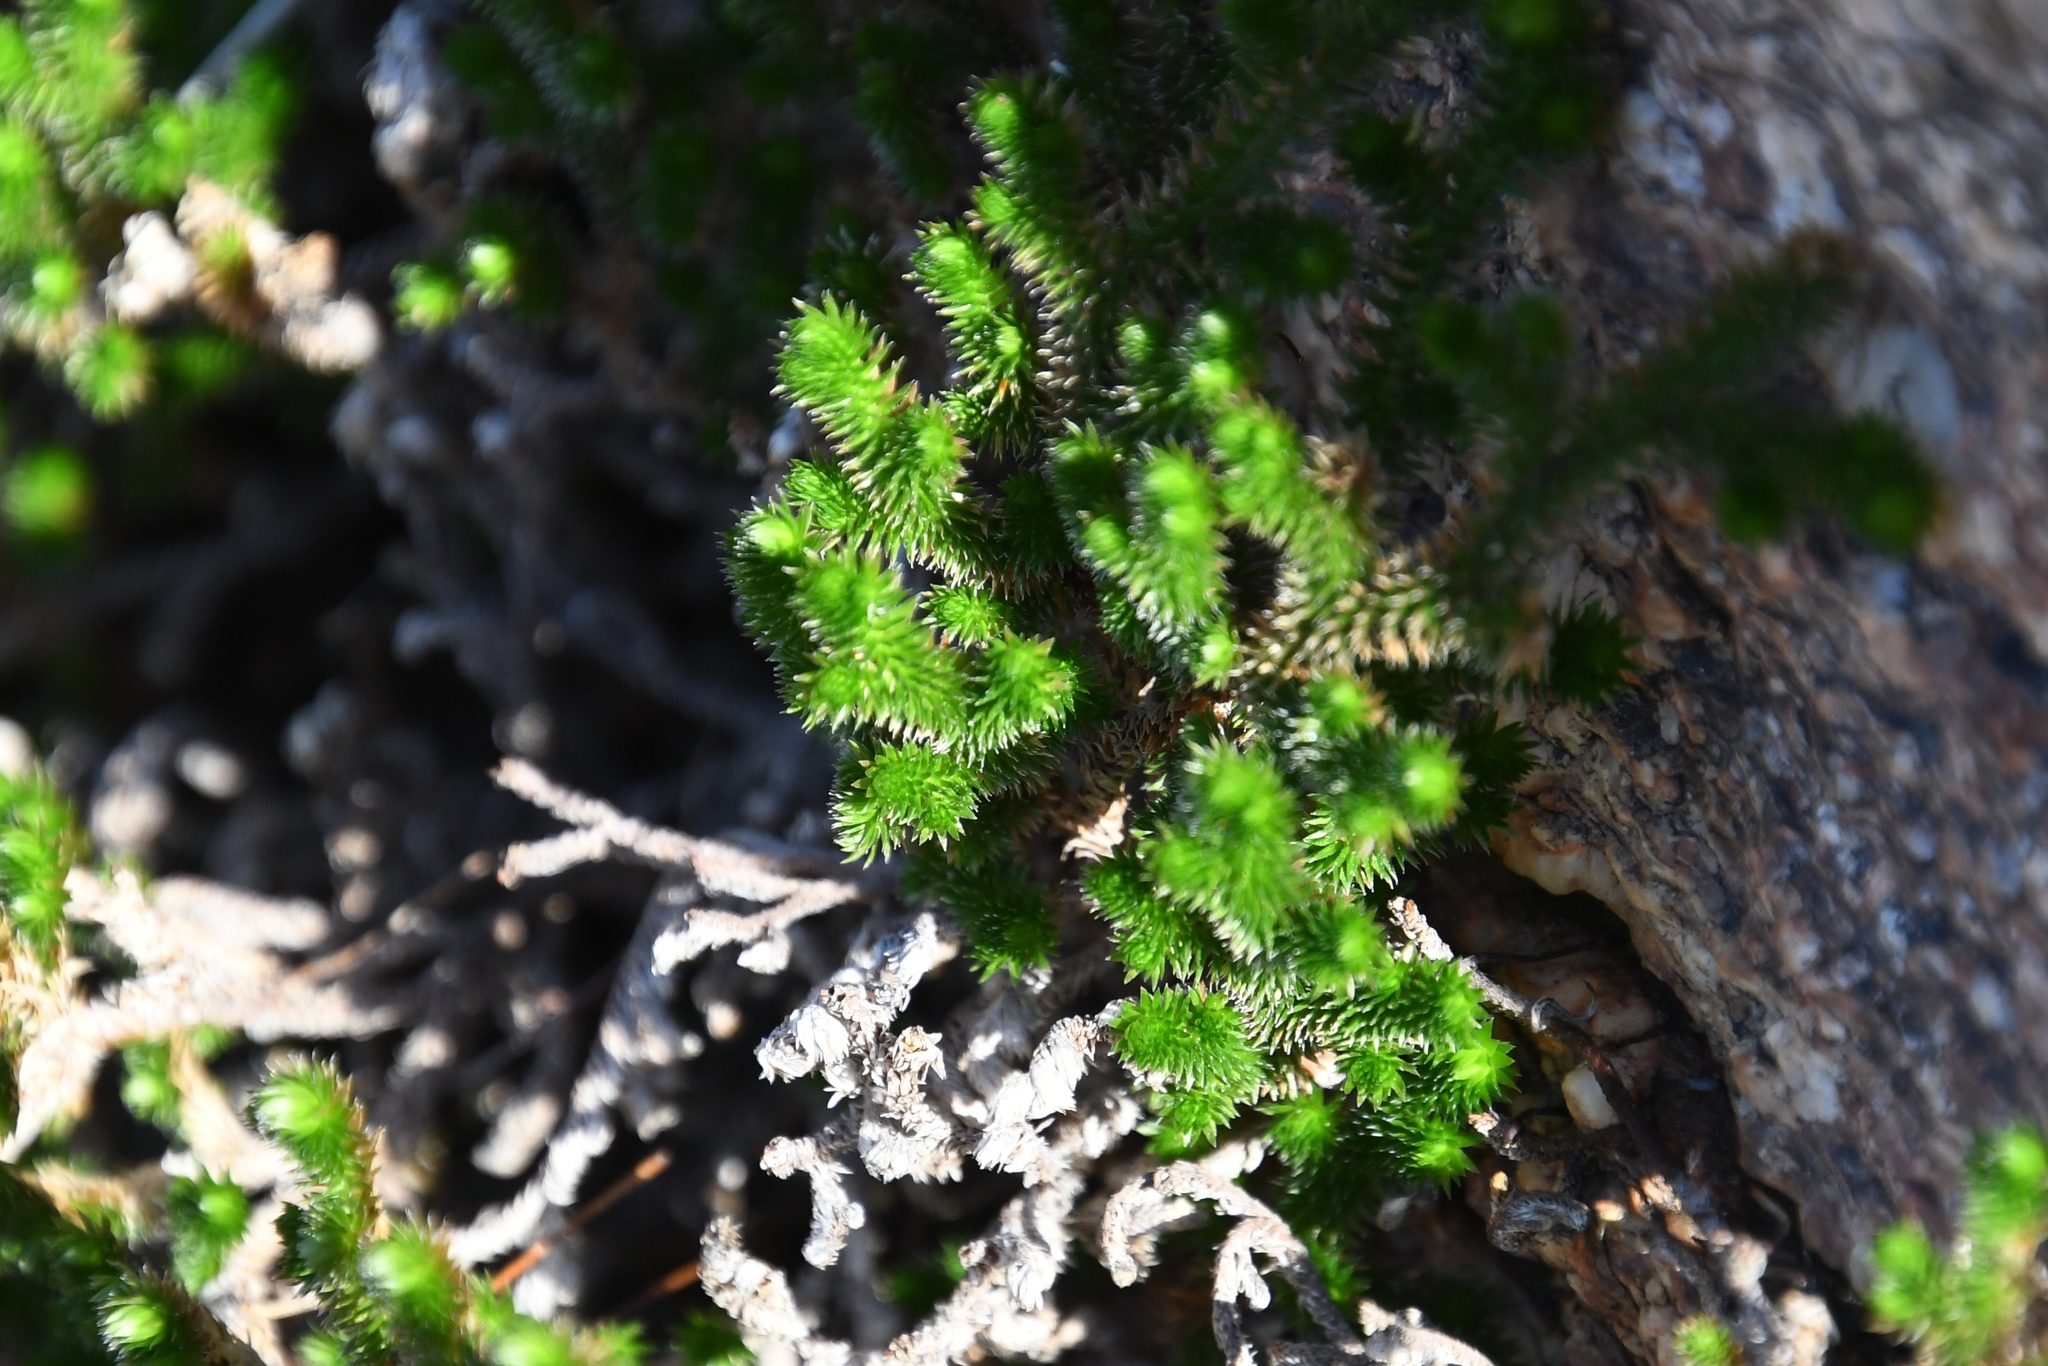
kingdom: Plantae
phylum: Tracheophyta
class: Lycopodiopsida
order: Selaginellales
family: Selaginellaceae
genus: Selaginella
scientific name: Selaginella arizonica
